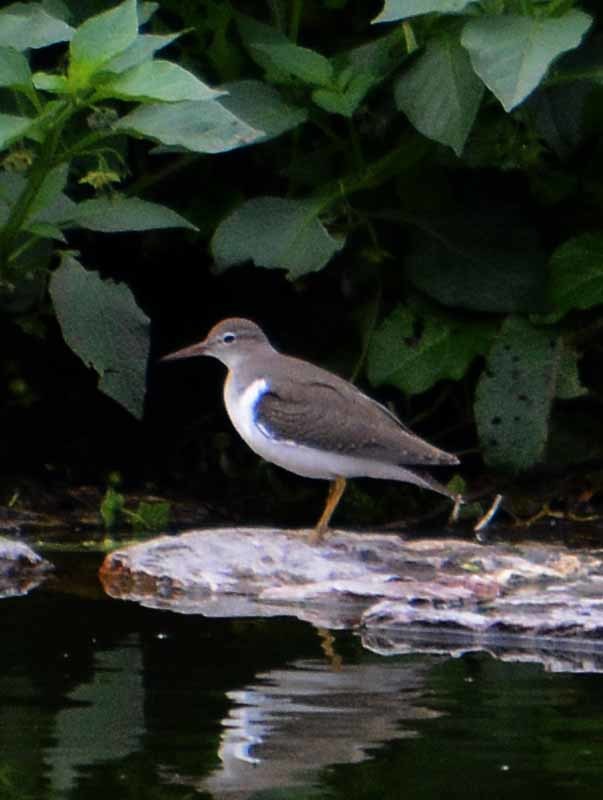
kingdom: Animalia
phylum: Chordata
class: Aves
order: Charadriiformes
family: Scolopacidae
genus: Actitis
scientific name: Actitis macularius
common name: Spotted sandpiper
